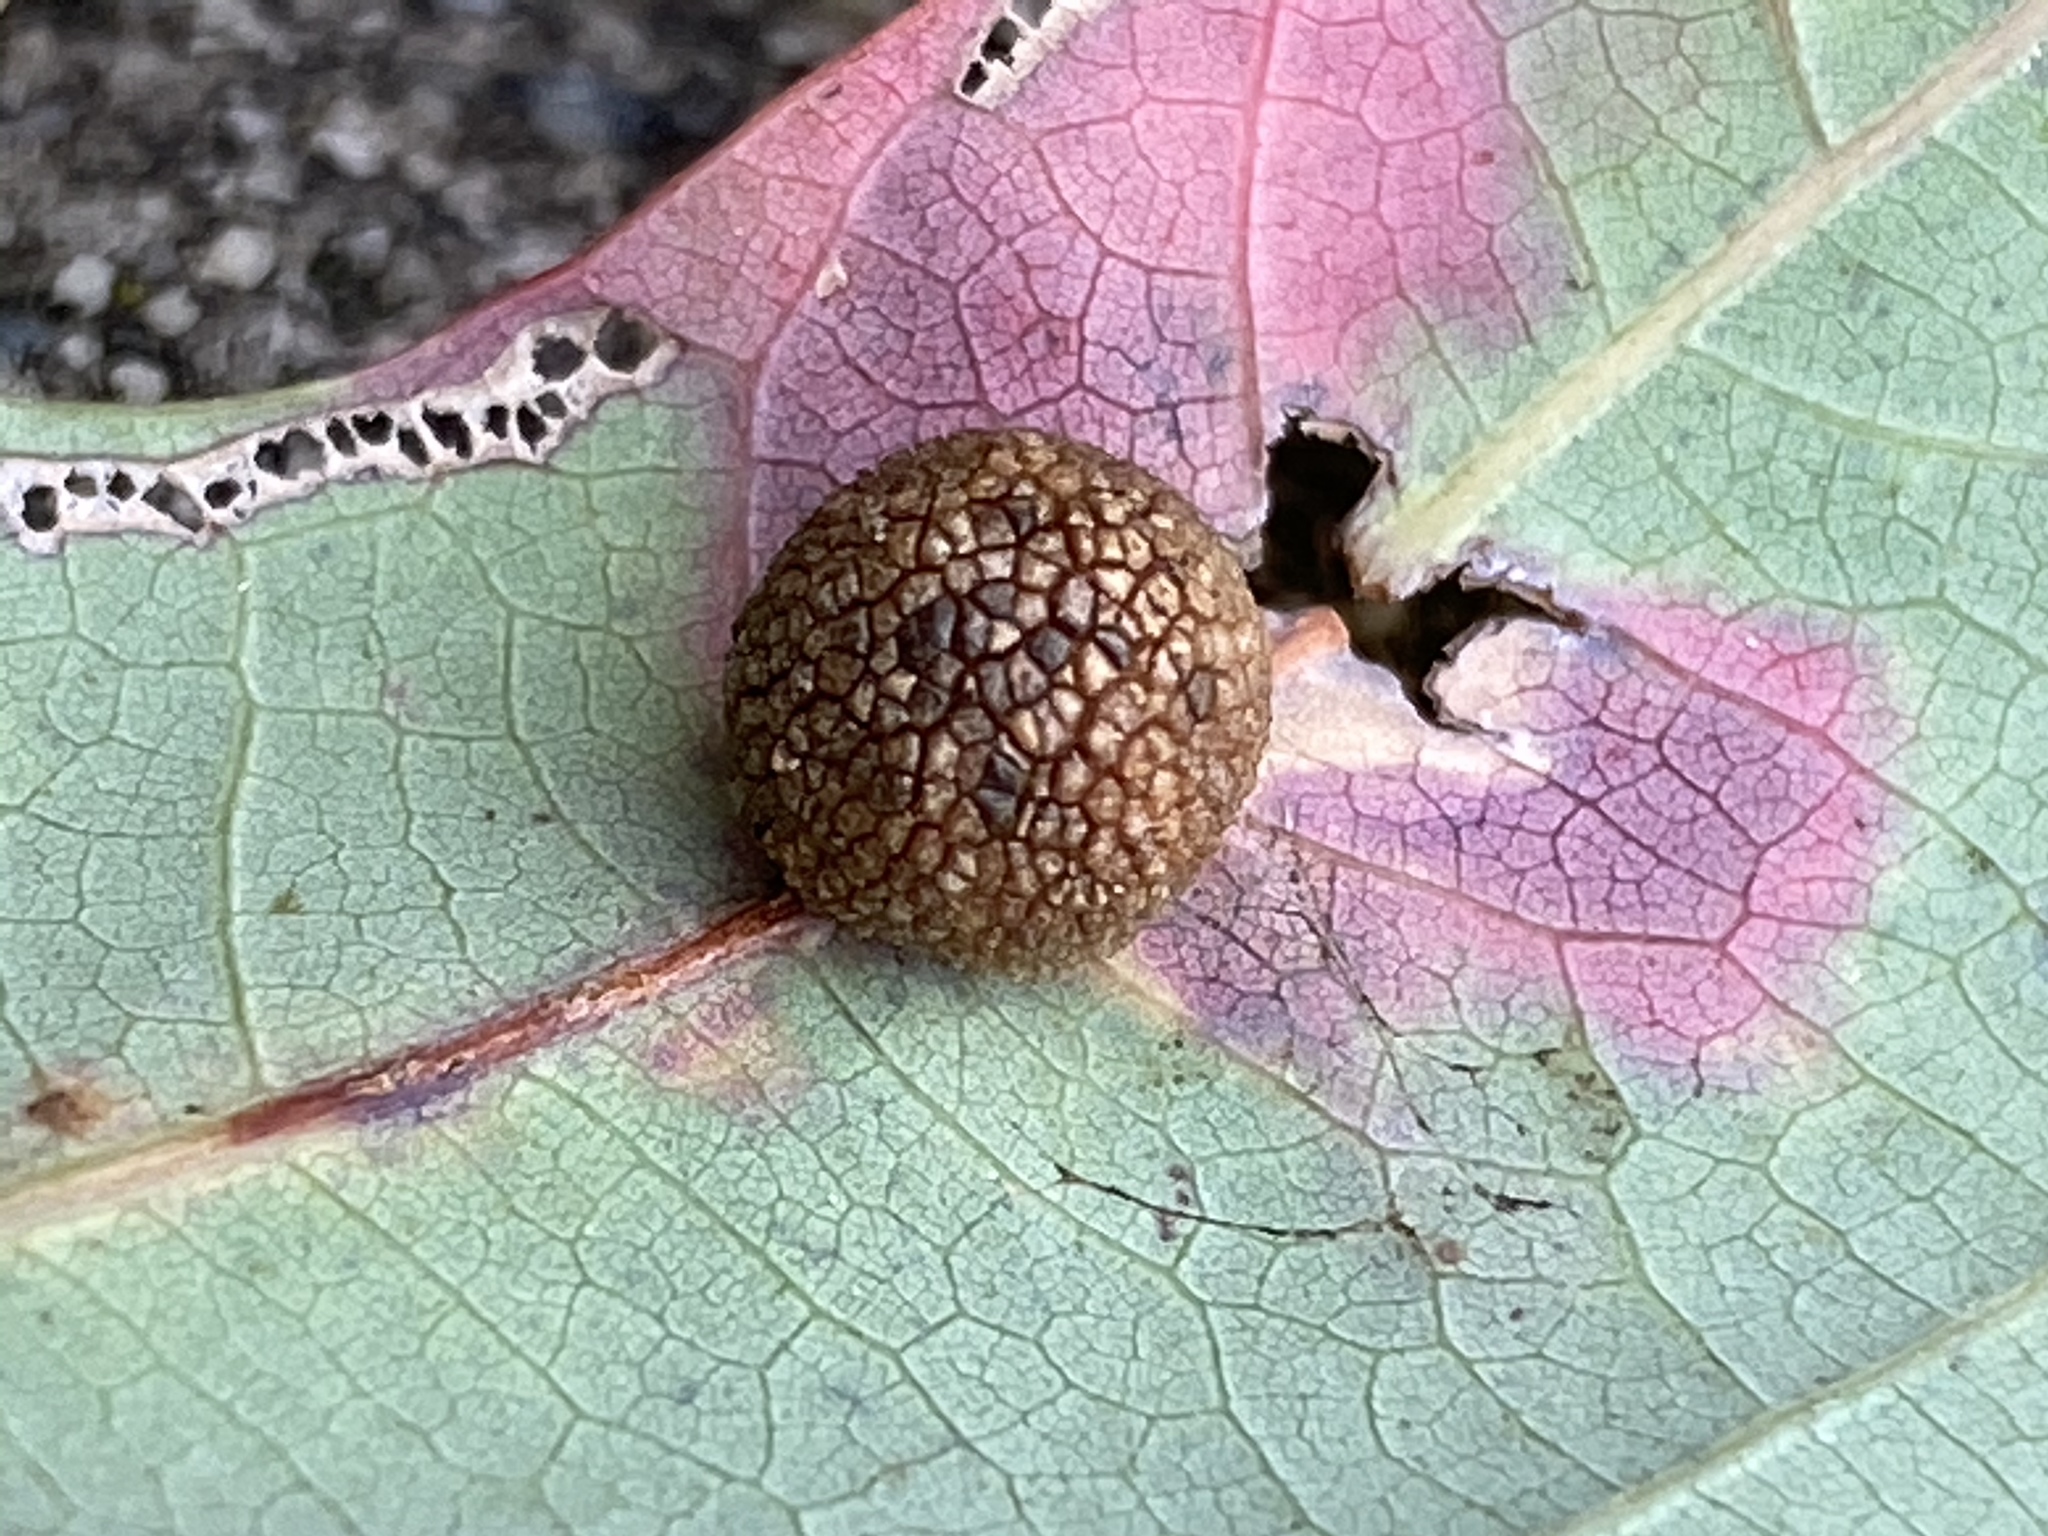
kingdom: Animalia
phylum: Arthropoda
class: Insecta
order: Hymenoptera
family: Cynipidae
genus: Acraspis
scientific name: Acraspis
